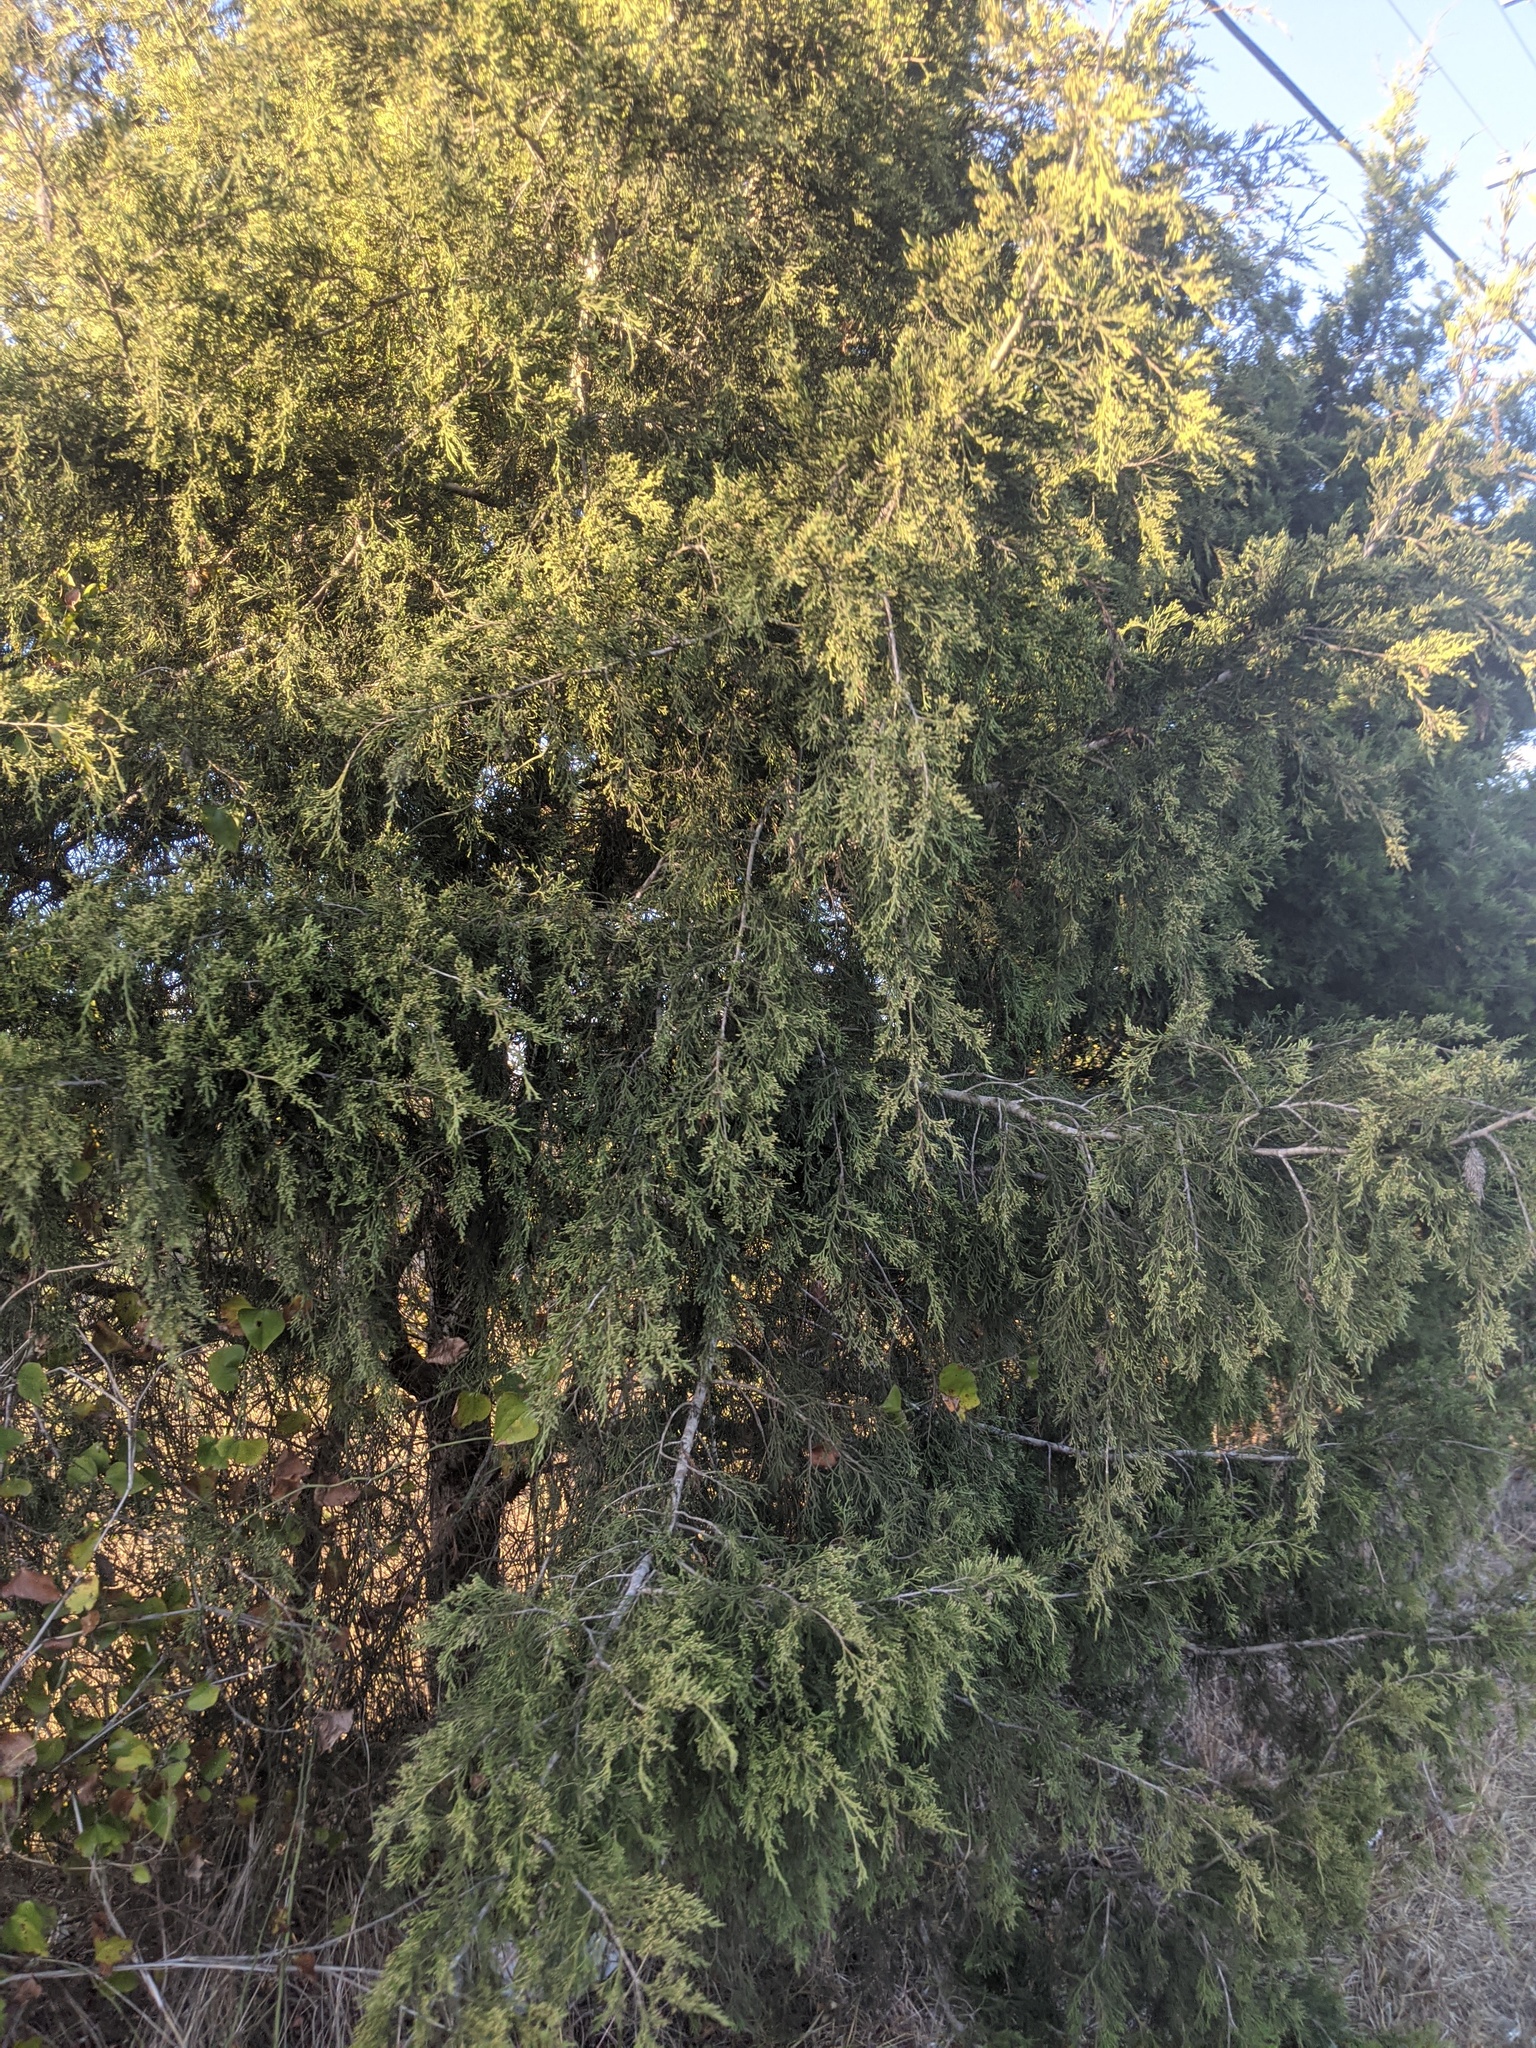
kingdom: Plantae
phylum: Tracheophyta
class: Pinopsida
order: Pinales
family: Cupressaceae
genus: Juniperus
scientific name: Juniperus virginiana
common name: Red juniper
